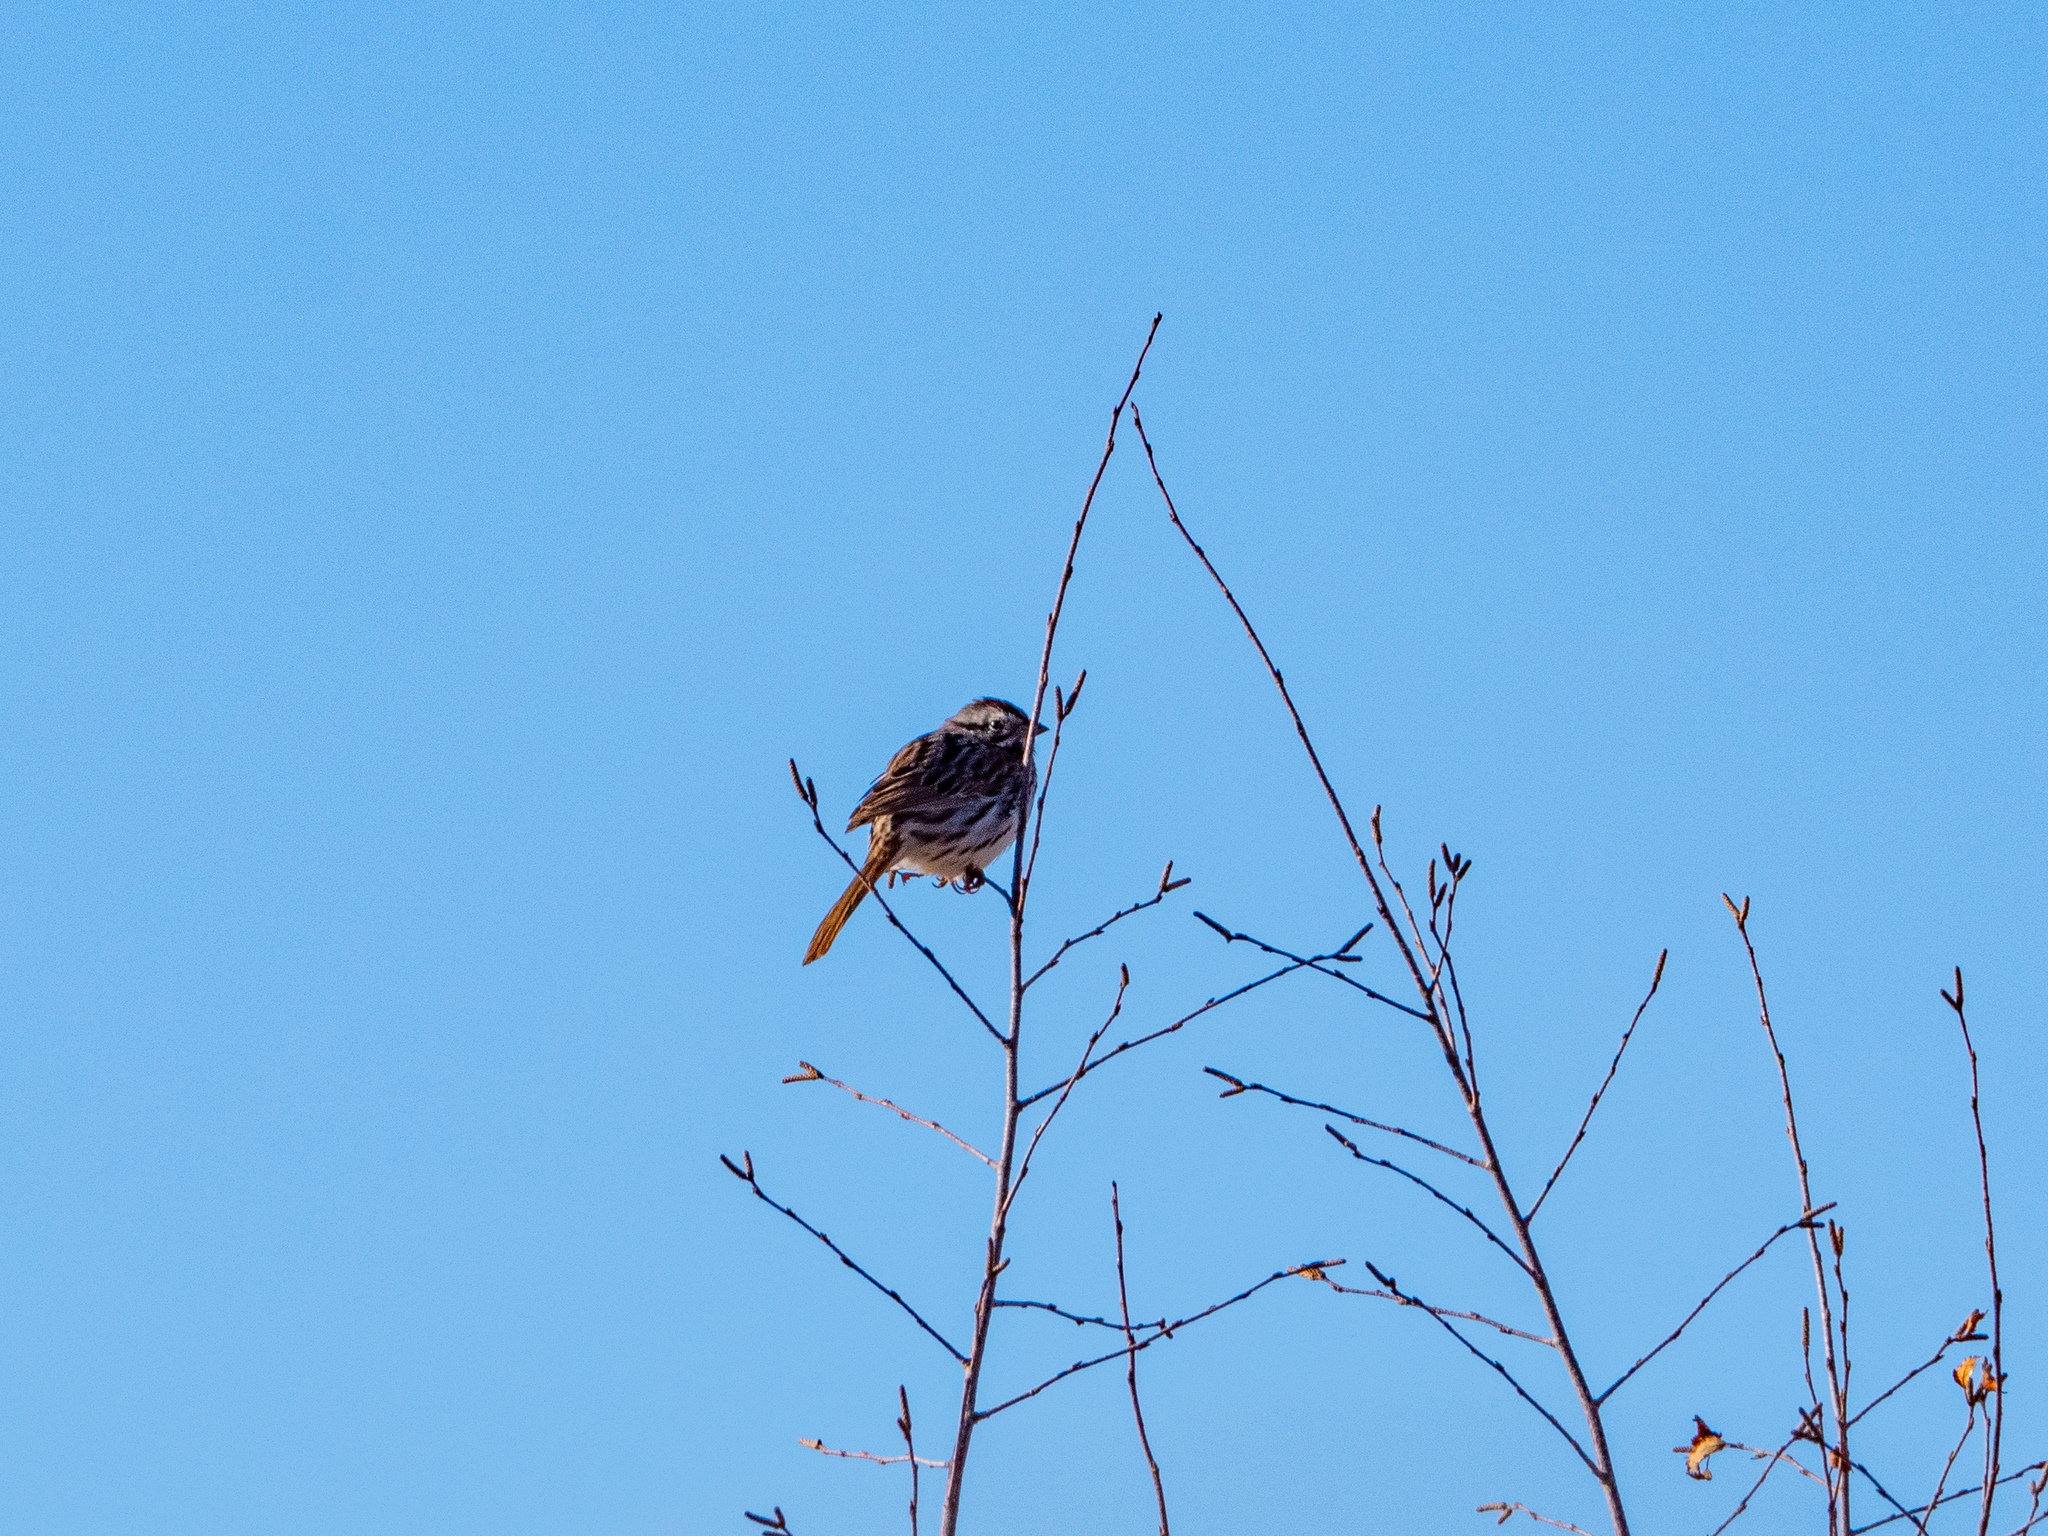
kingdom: Animalia
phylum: Chordata
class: Aves
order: Passeriformes
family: Passerellidae
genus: Melospiza
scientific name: Melospiza melodia
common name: Song sparrow
